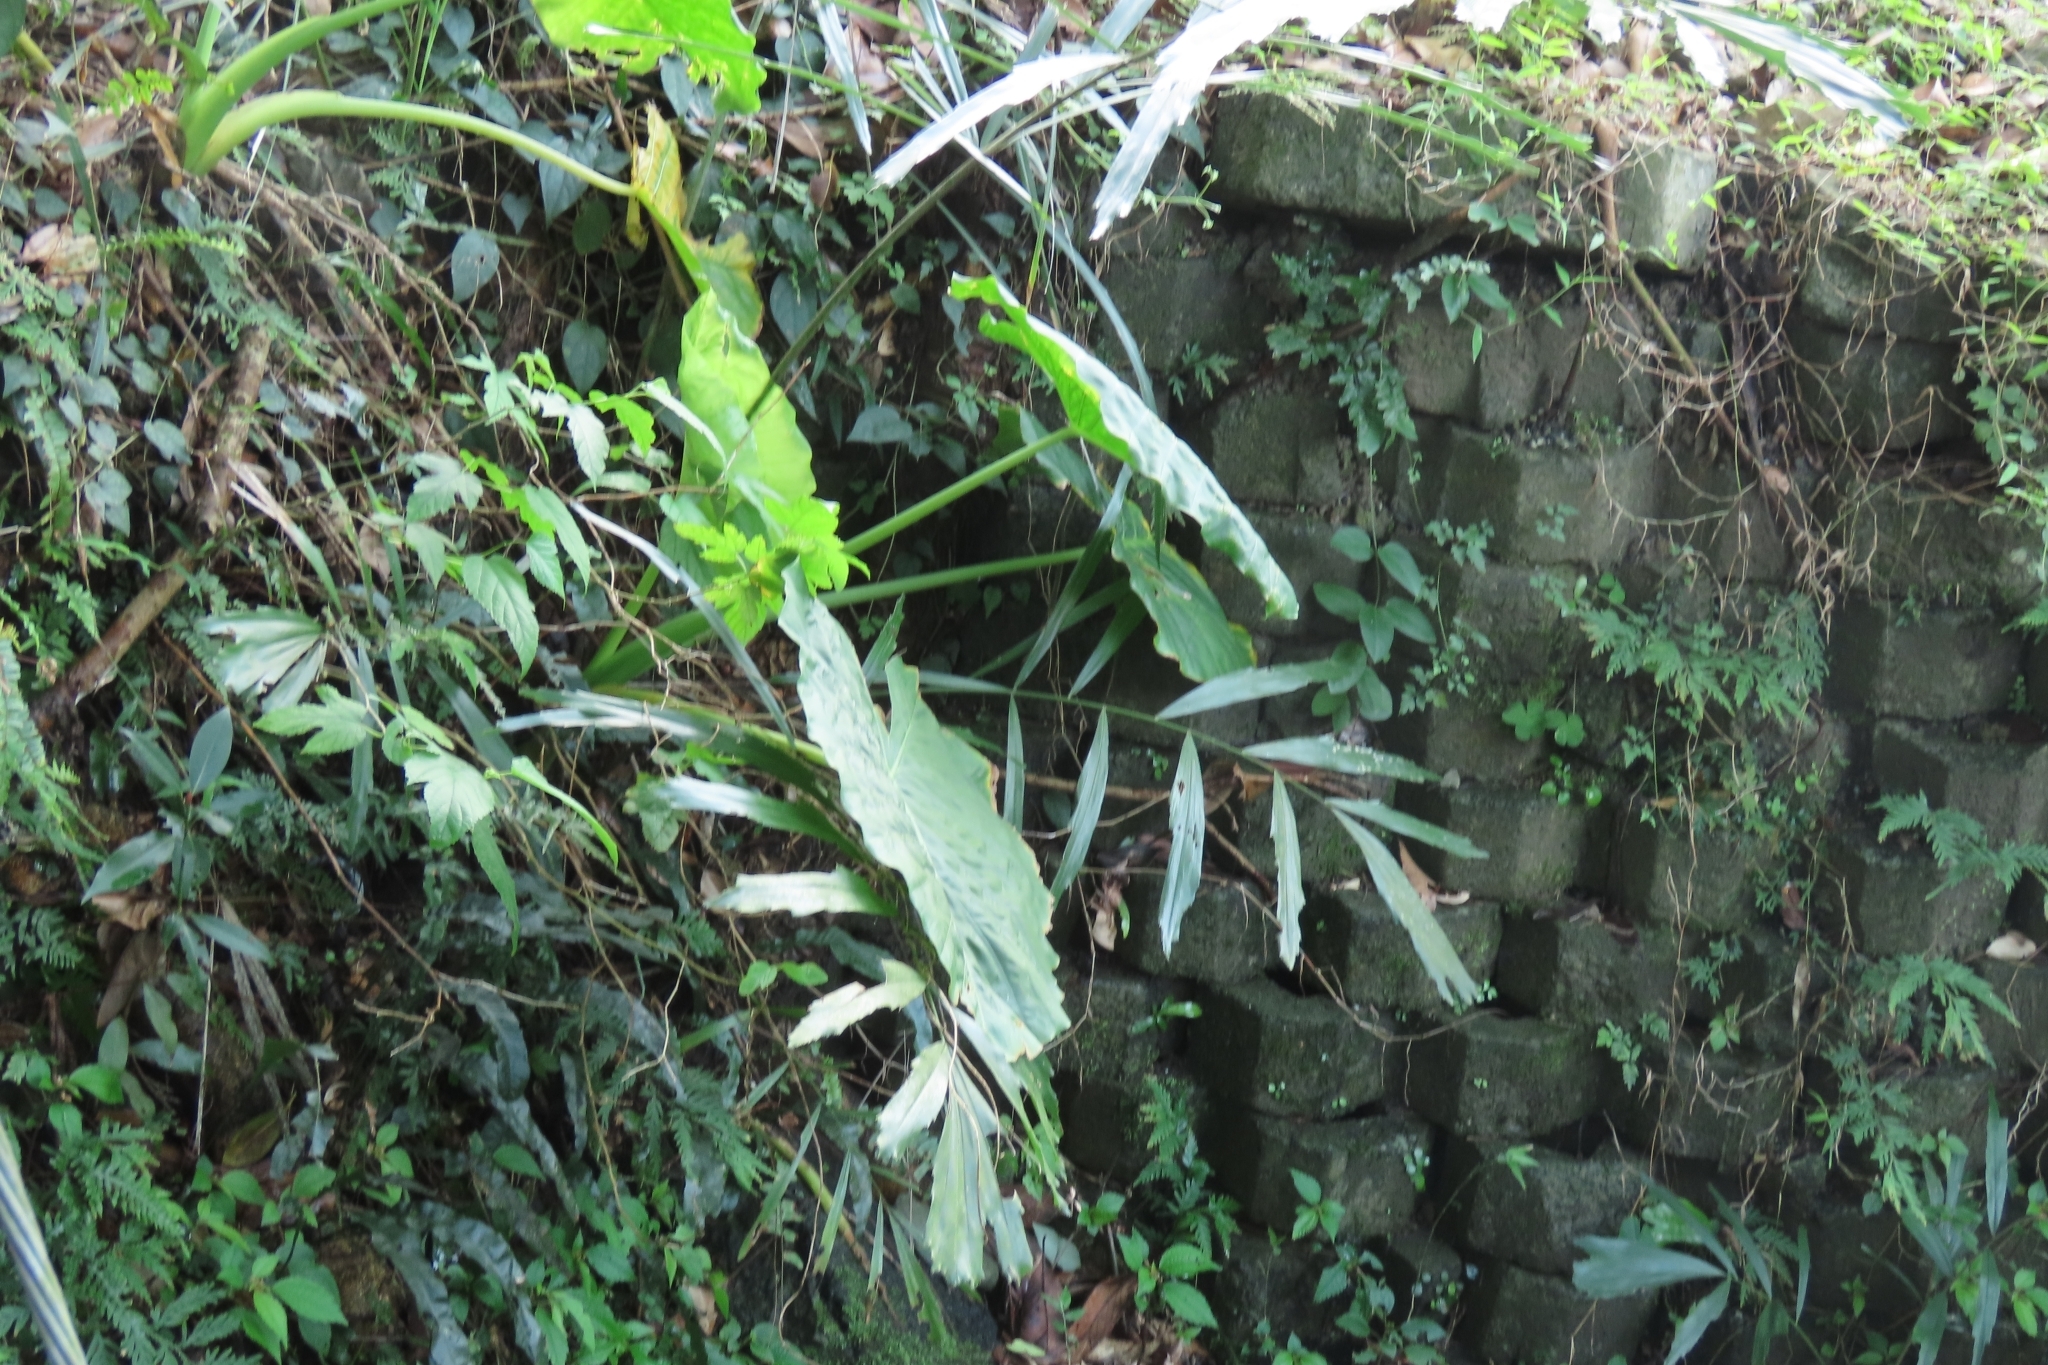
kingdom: Plantae
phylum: Tracheophyta
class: Liliopsida
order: Arecales
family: Arecaceae
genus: Arenga
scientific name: Arenga engleri
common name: Formosan sugar palm
